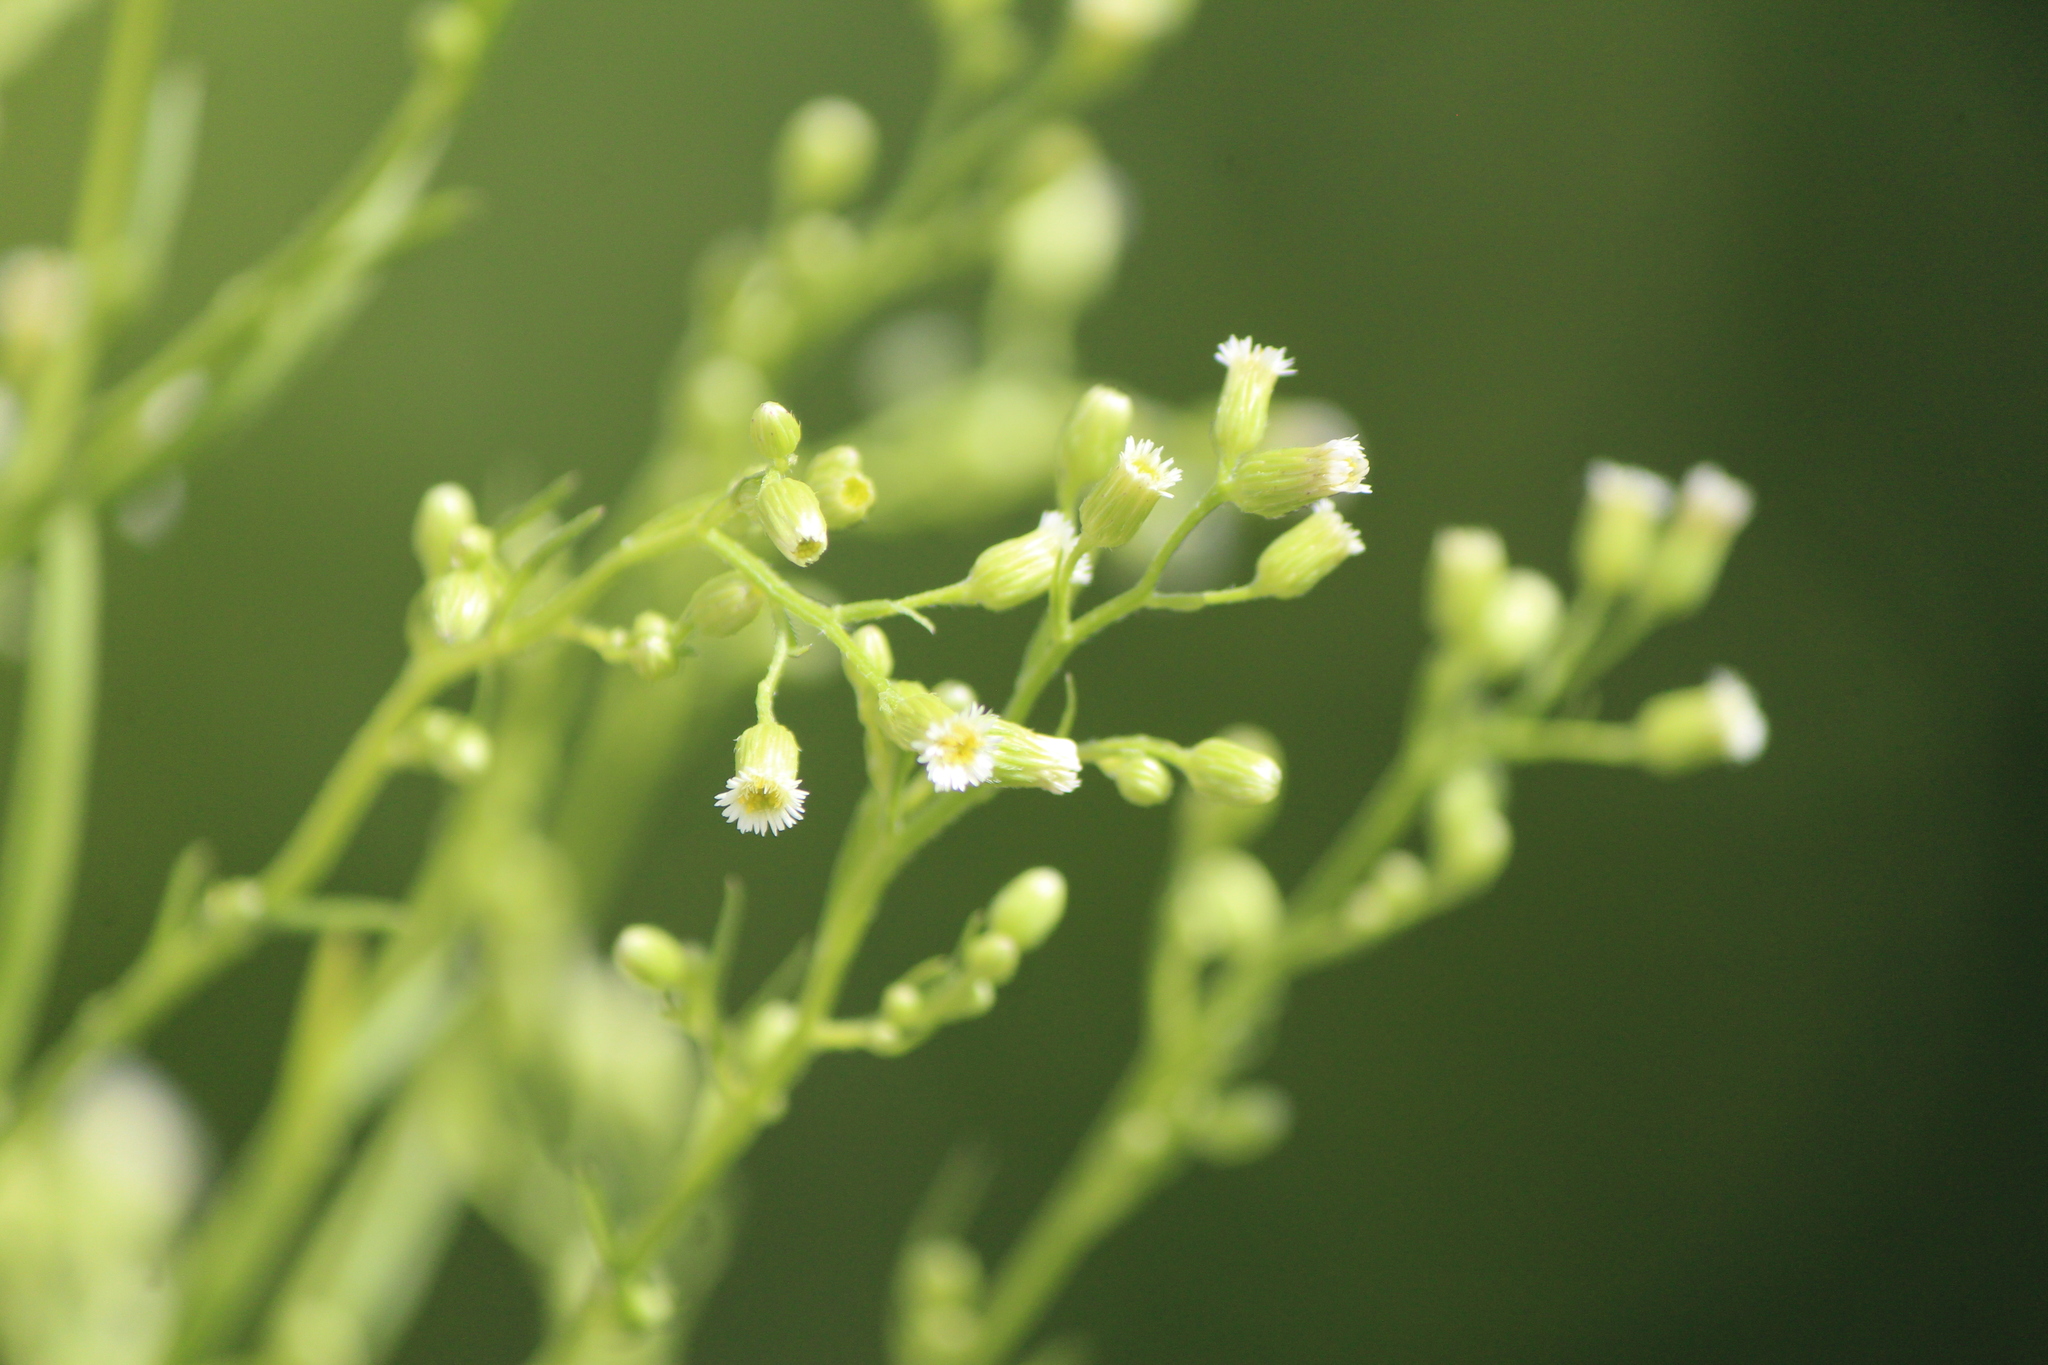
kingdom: Plantae
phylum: Tracheophyta
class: Magnoliopsida
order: Asterales
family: Asteraceae
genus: Erigeron
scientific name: Erigeron canadensis
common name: Canadian fleabane
